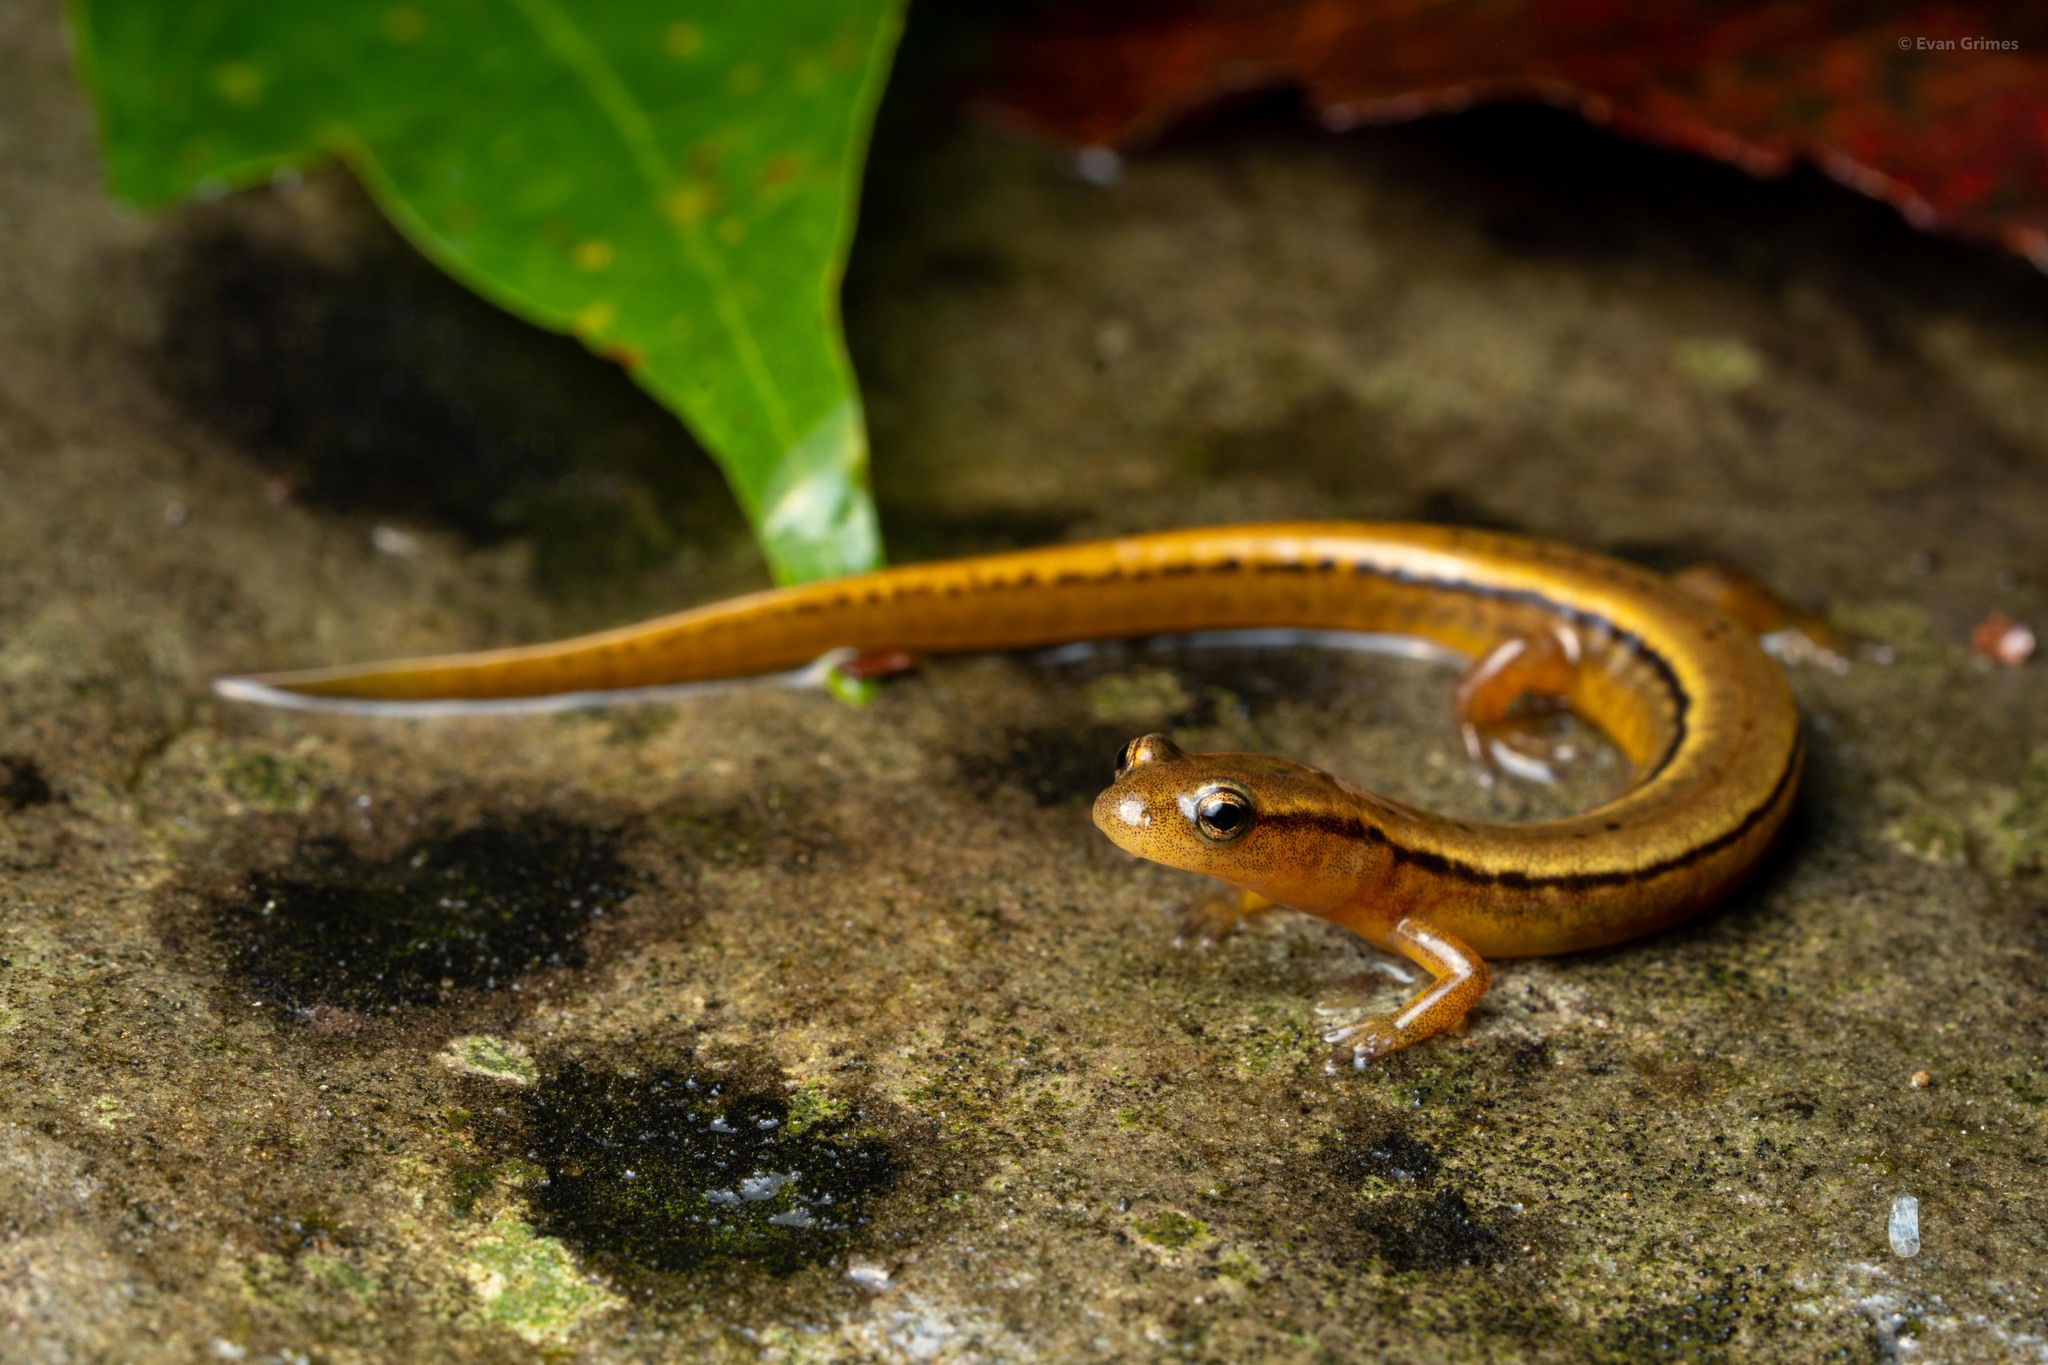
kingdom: Animalia
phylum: Chordata
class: Amphibia
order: Caudata
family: Plethodontidae
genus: Eurycea
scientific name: Eurycea bislineata
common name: Northern two-lined salamander
